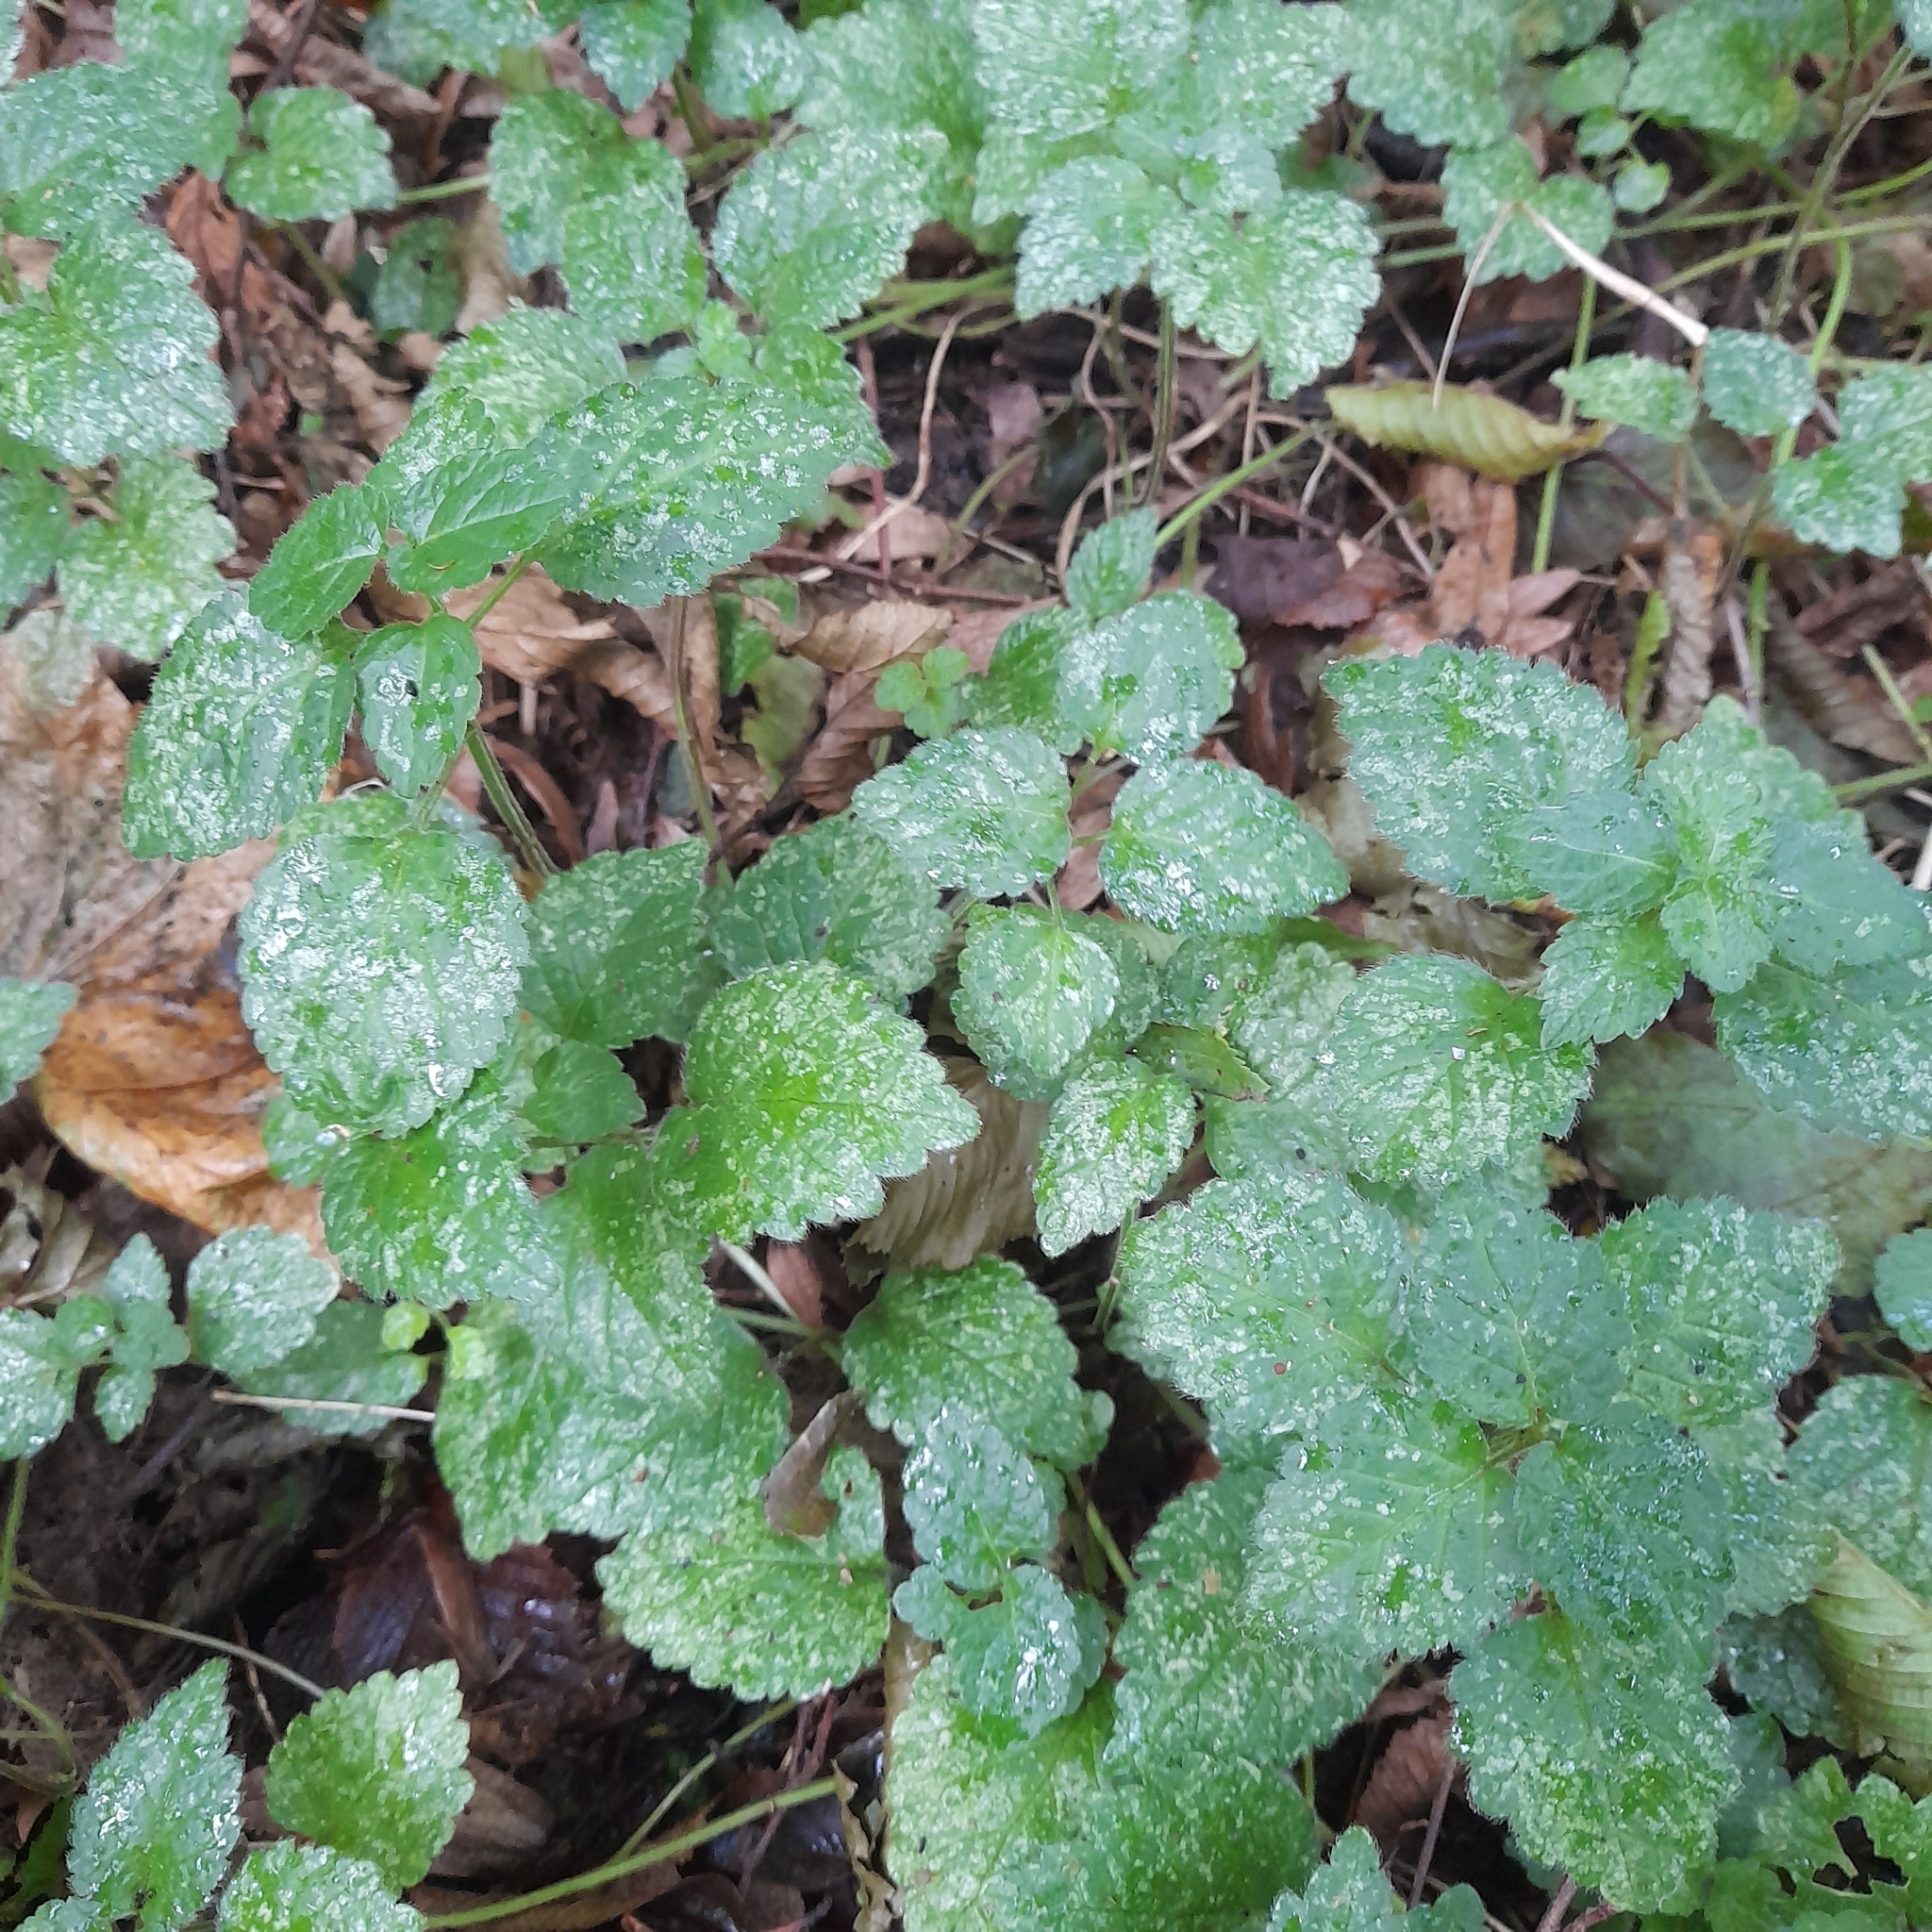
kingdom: Plantae
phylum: Tracheophyta
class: Magnoliopsida
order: Lamiales
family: Lamiaceae
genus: Lamium
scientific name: Lamium galeobdolon
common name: Yellow archangel
